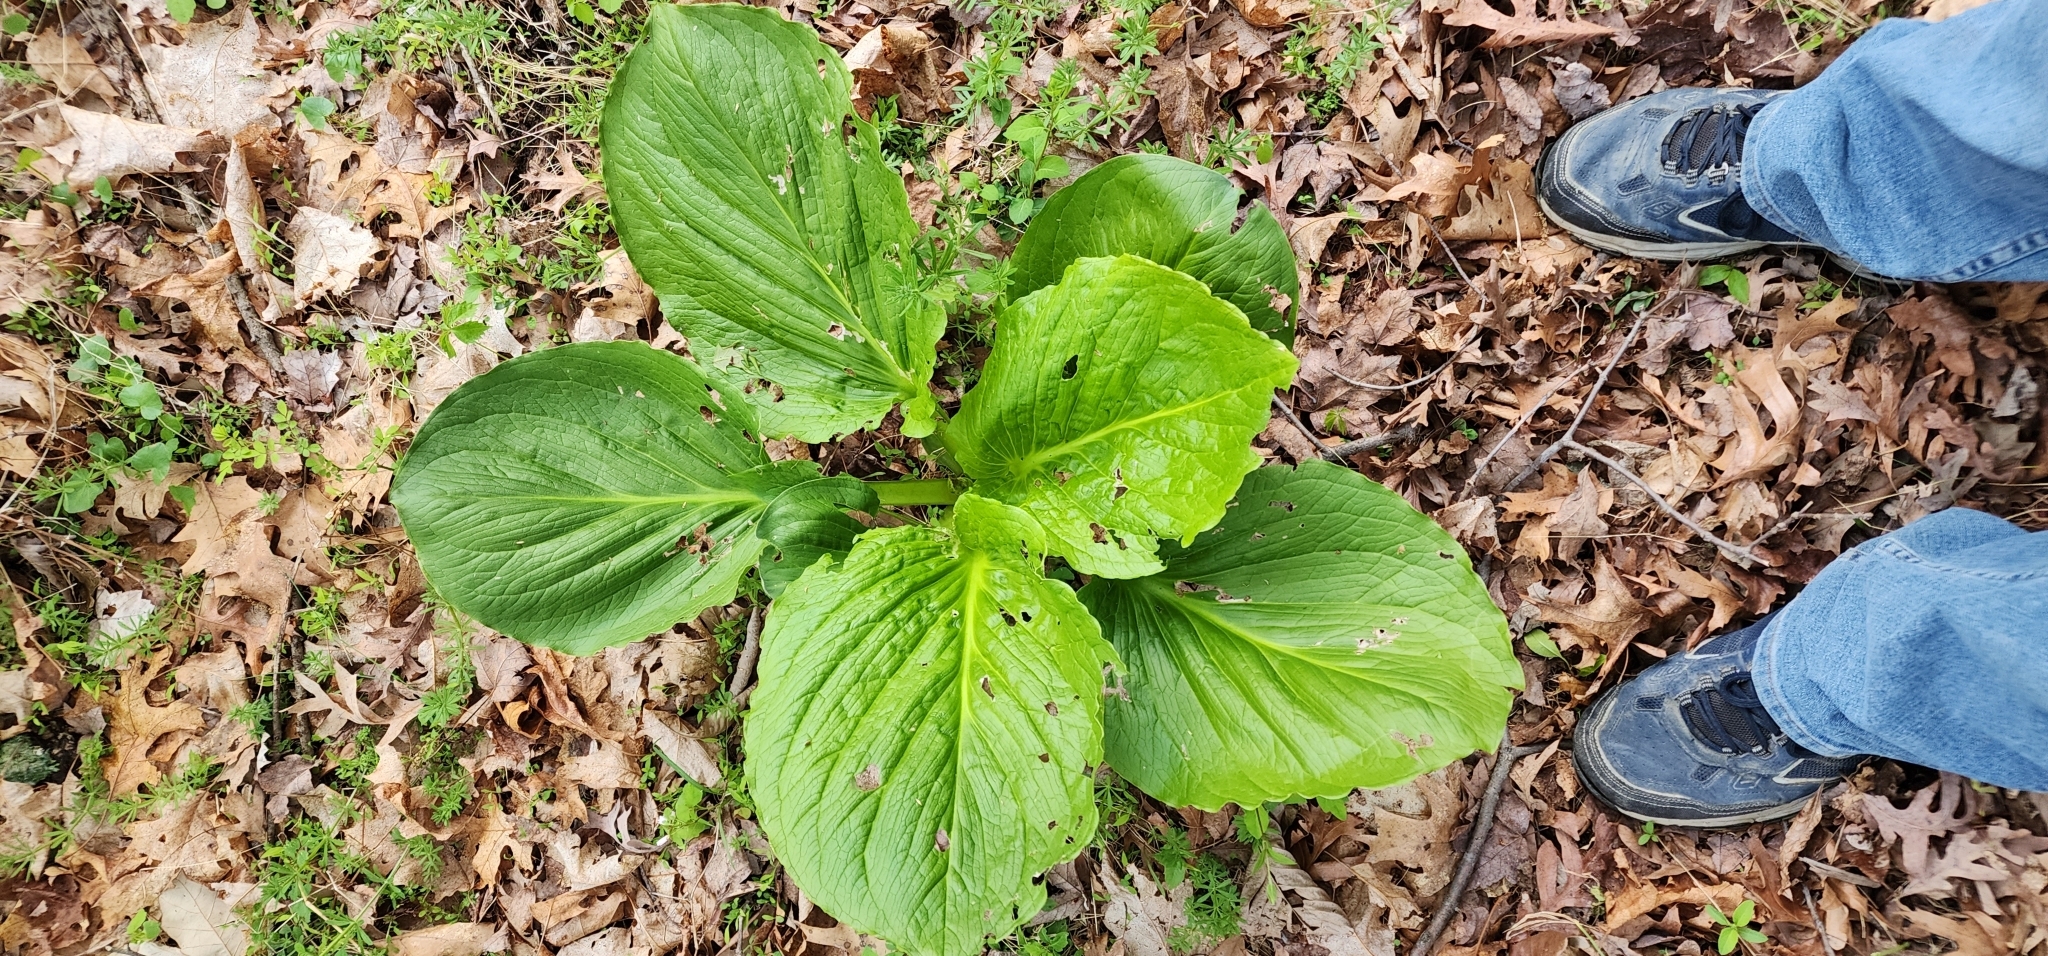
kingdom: Plantae
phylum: Tracheophyta
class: Liliopsida
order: Alismatales
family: Araceae
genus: Symplocarpus
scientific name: Symplocarpus foetidus
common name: Eastern skunk cabbage
